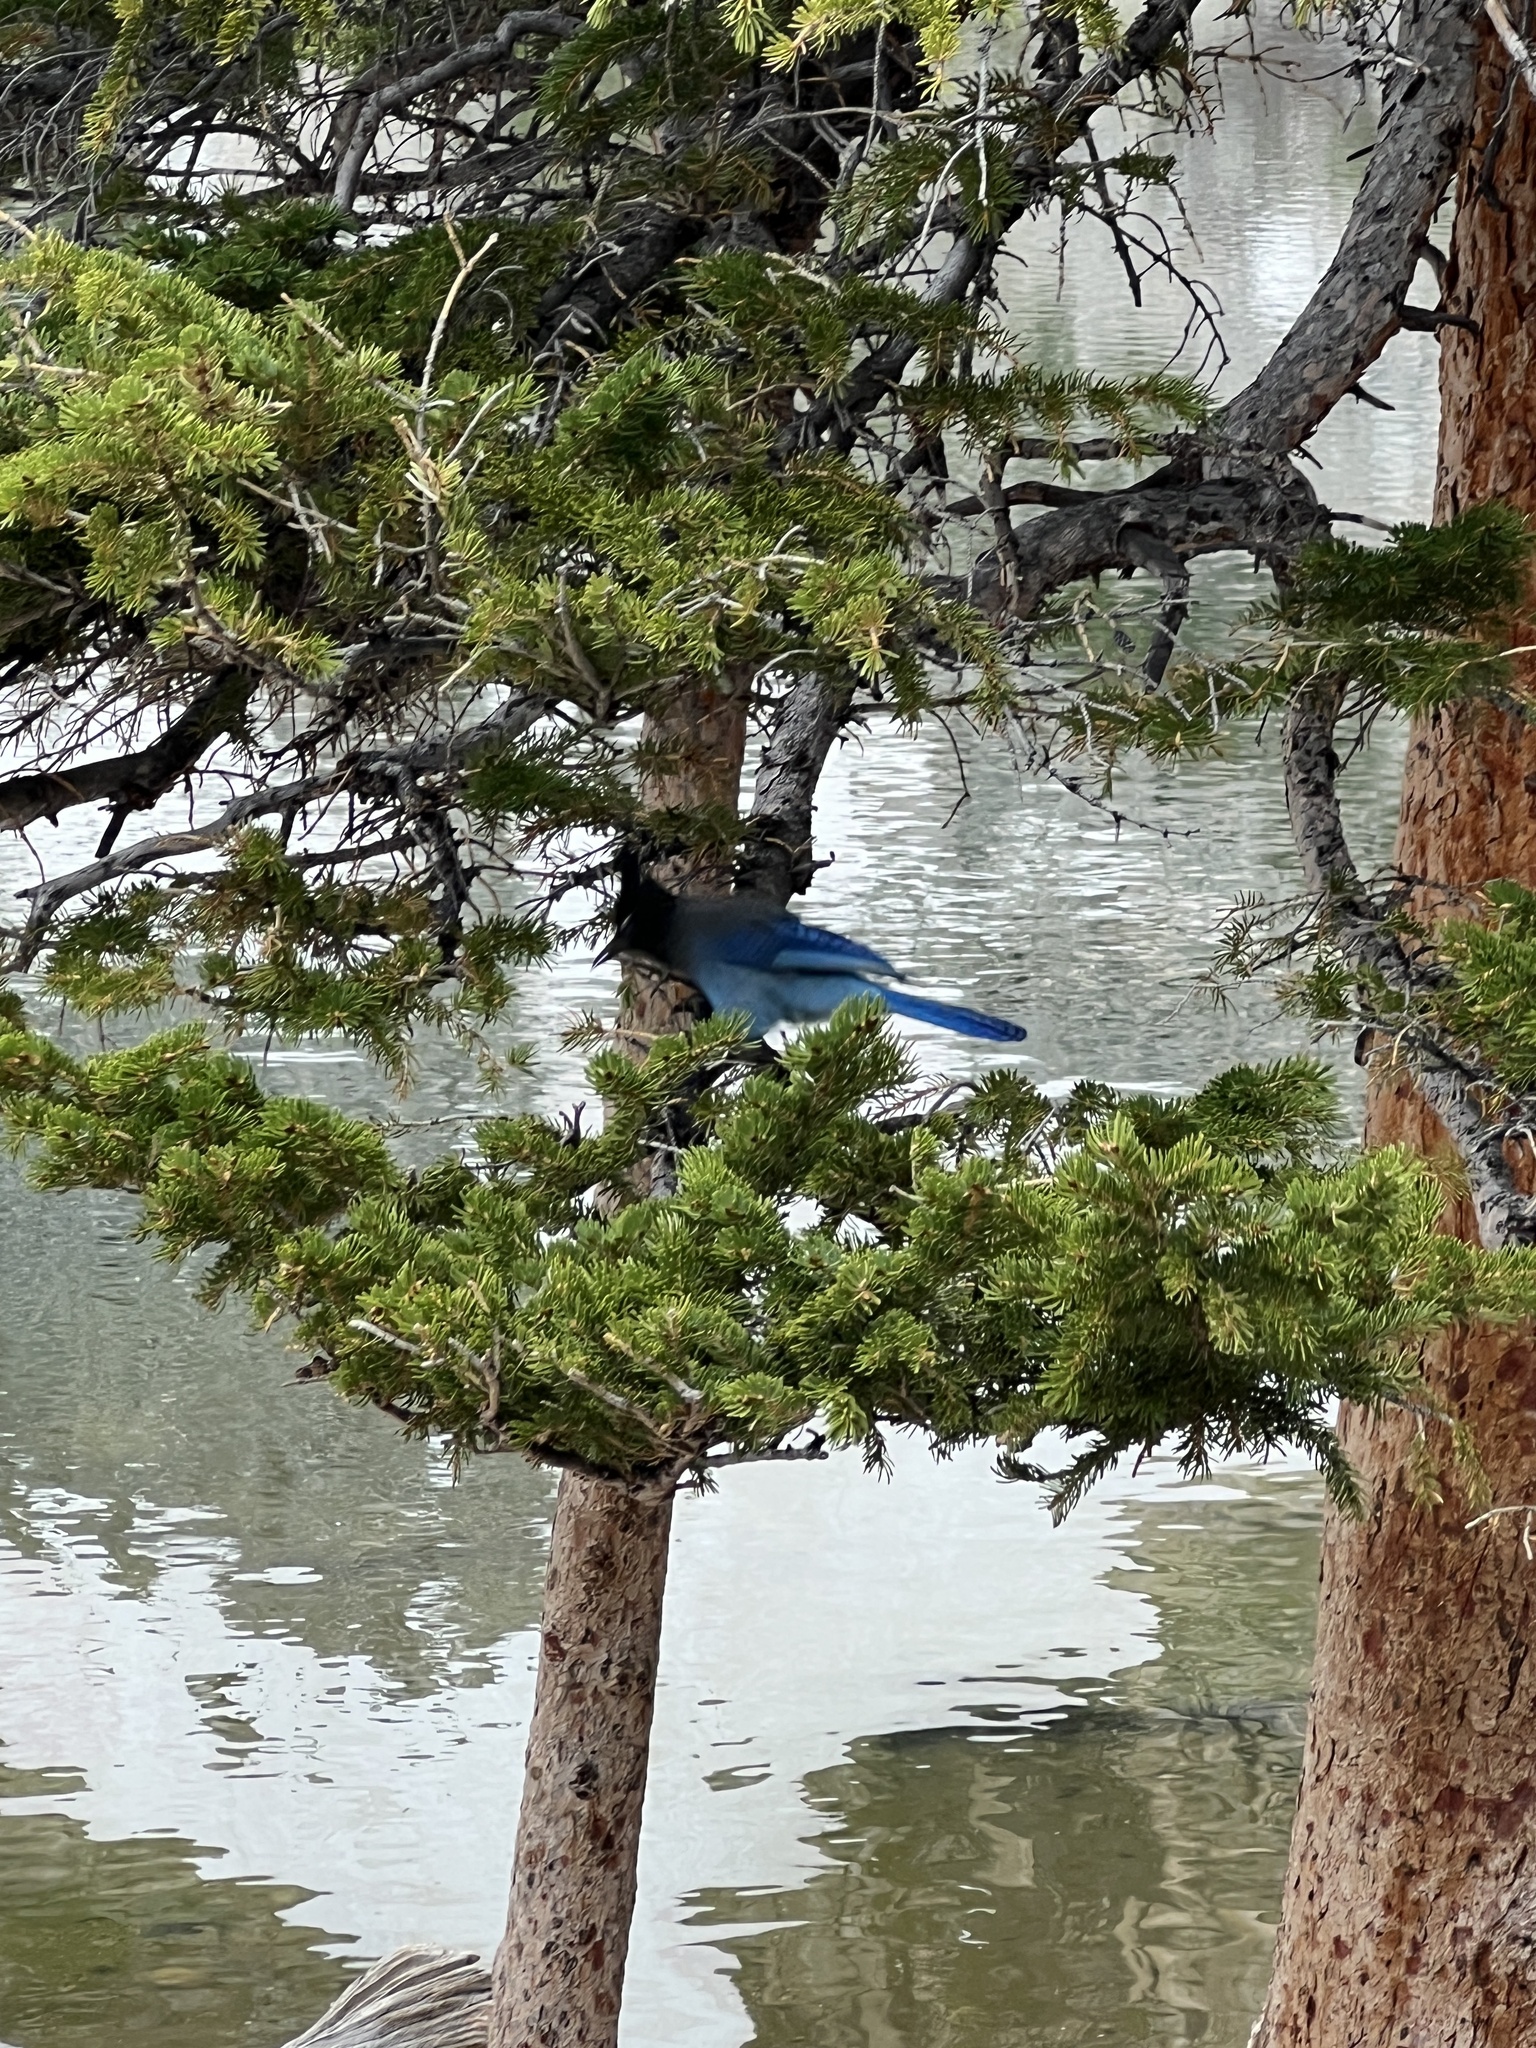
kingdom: Animalia
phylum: Chordata
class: Aves
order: Passeriformes
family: Corvidae
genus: Cyanocitta
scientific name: Cyanocitta stelleri
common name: Steller's jay
